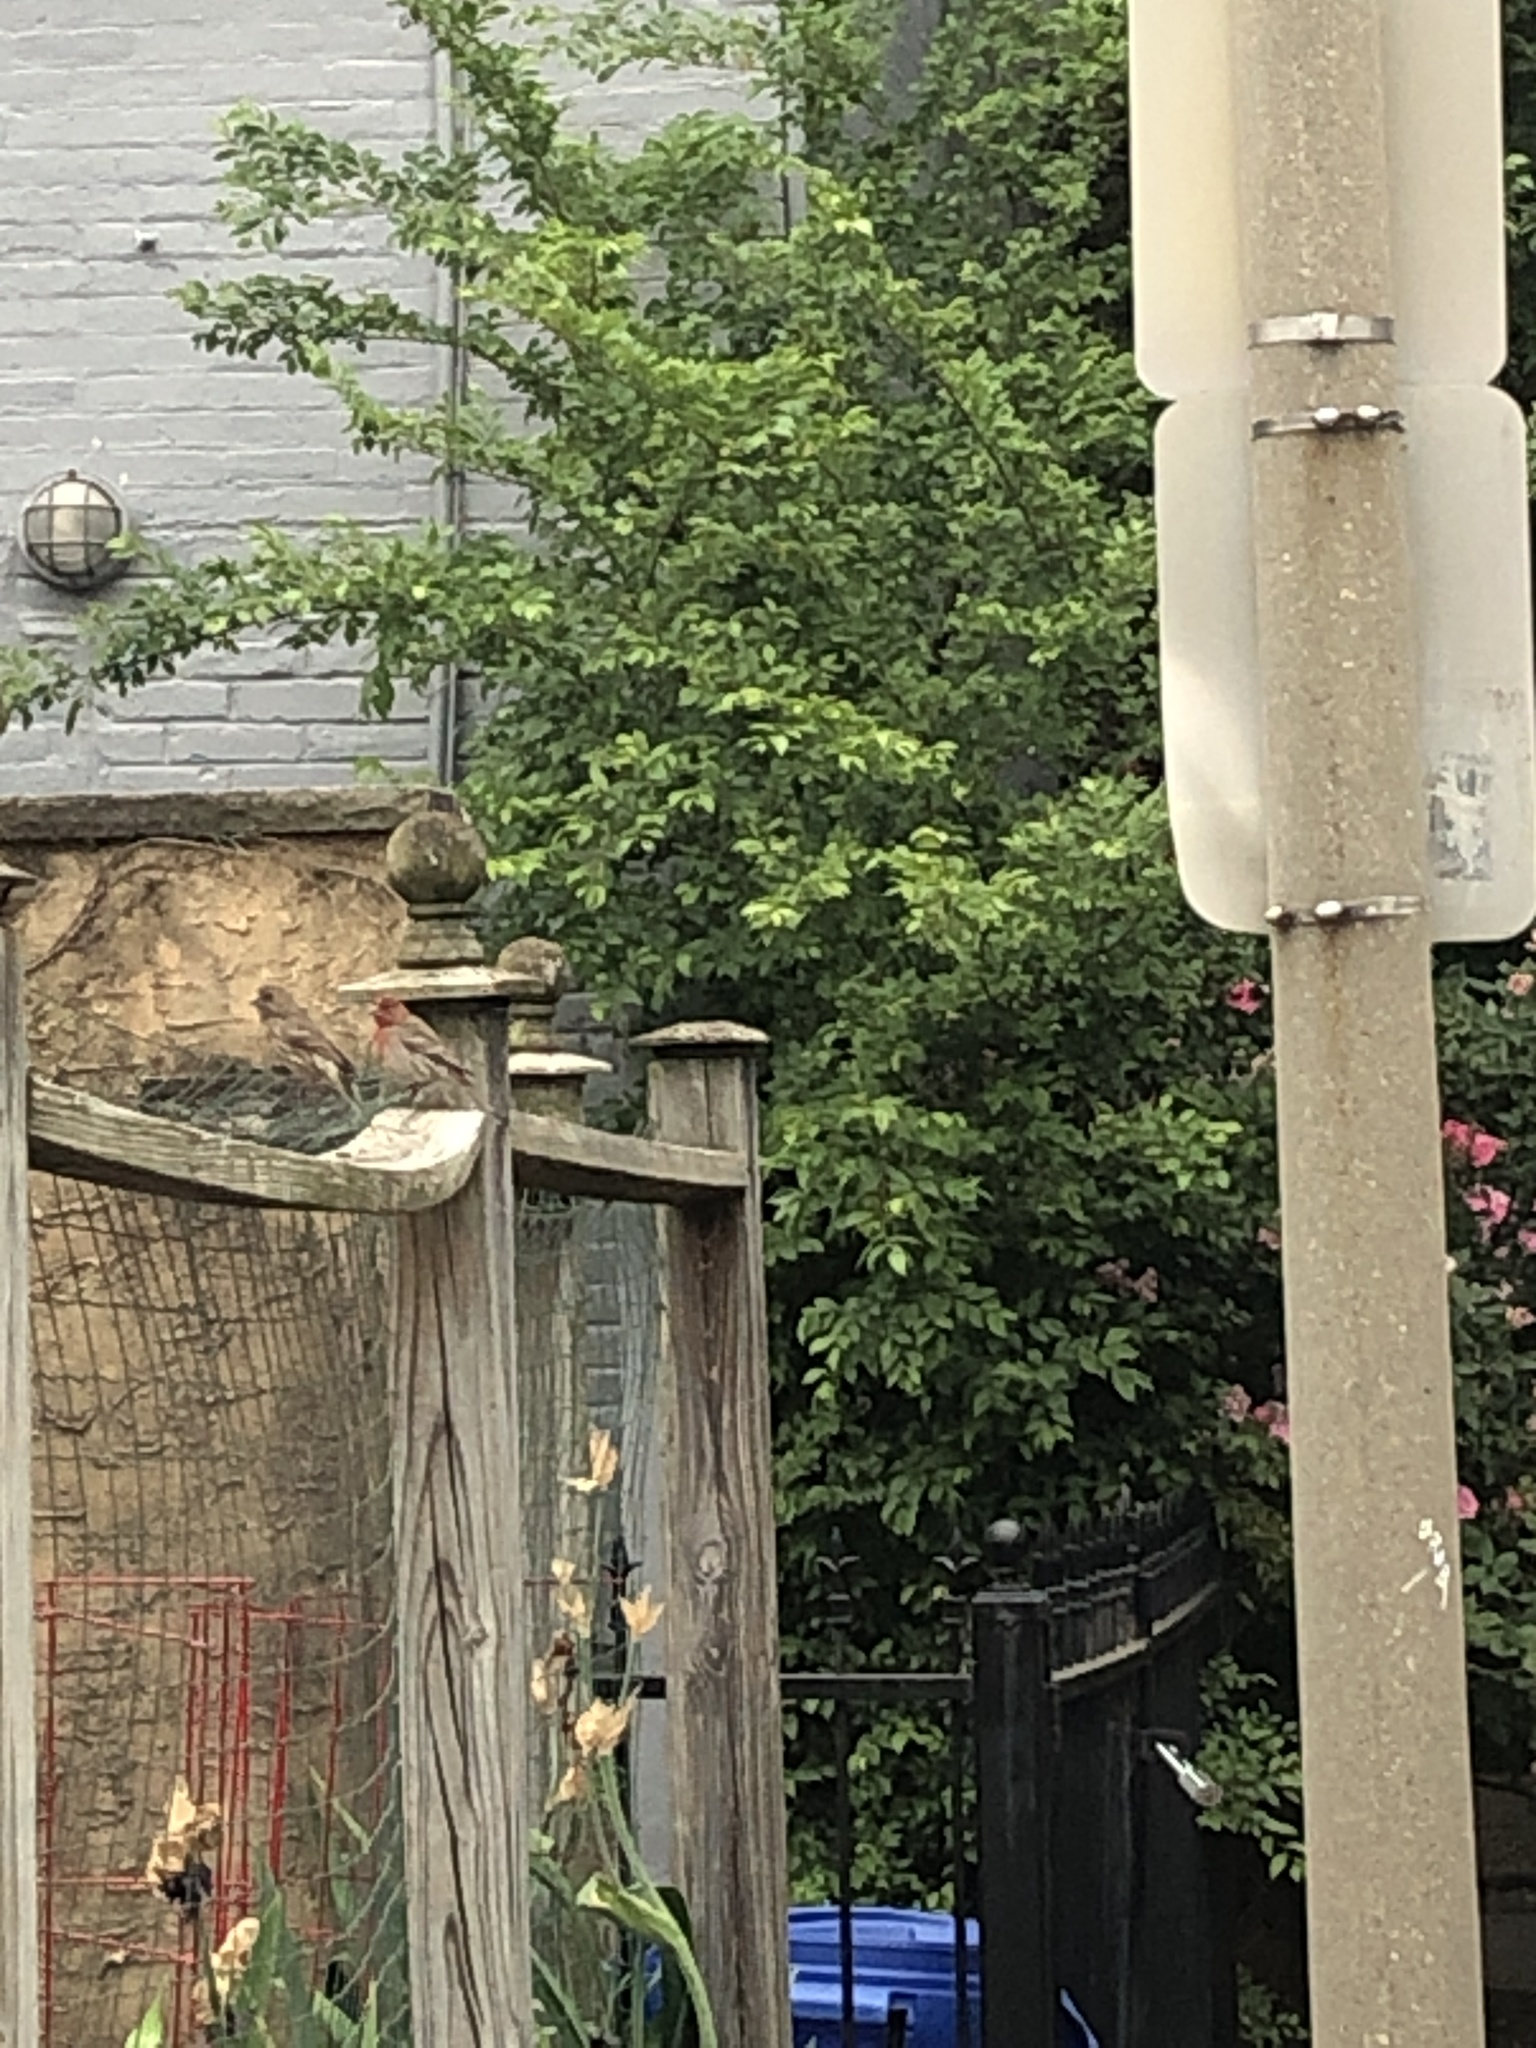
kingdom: Animalia
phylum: Chordata
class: Aves
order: Passeriformes
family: Fringillidae
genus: Haemorhous
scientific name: Haemorhous mexicanus
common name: House finch
